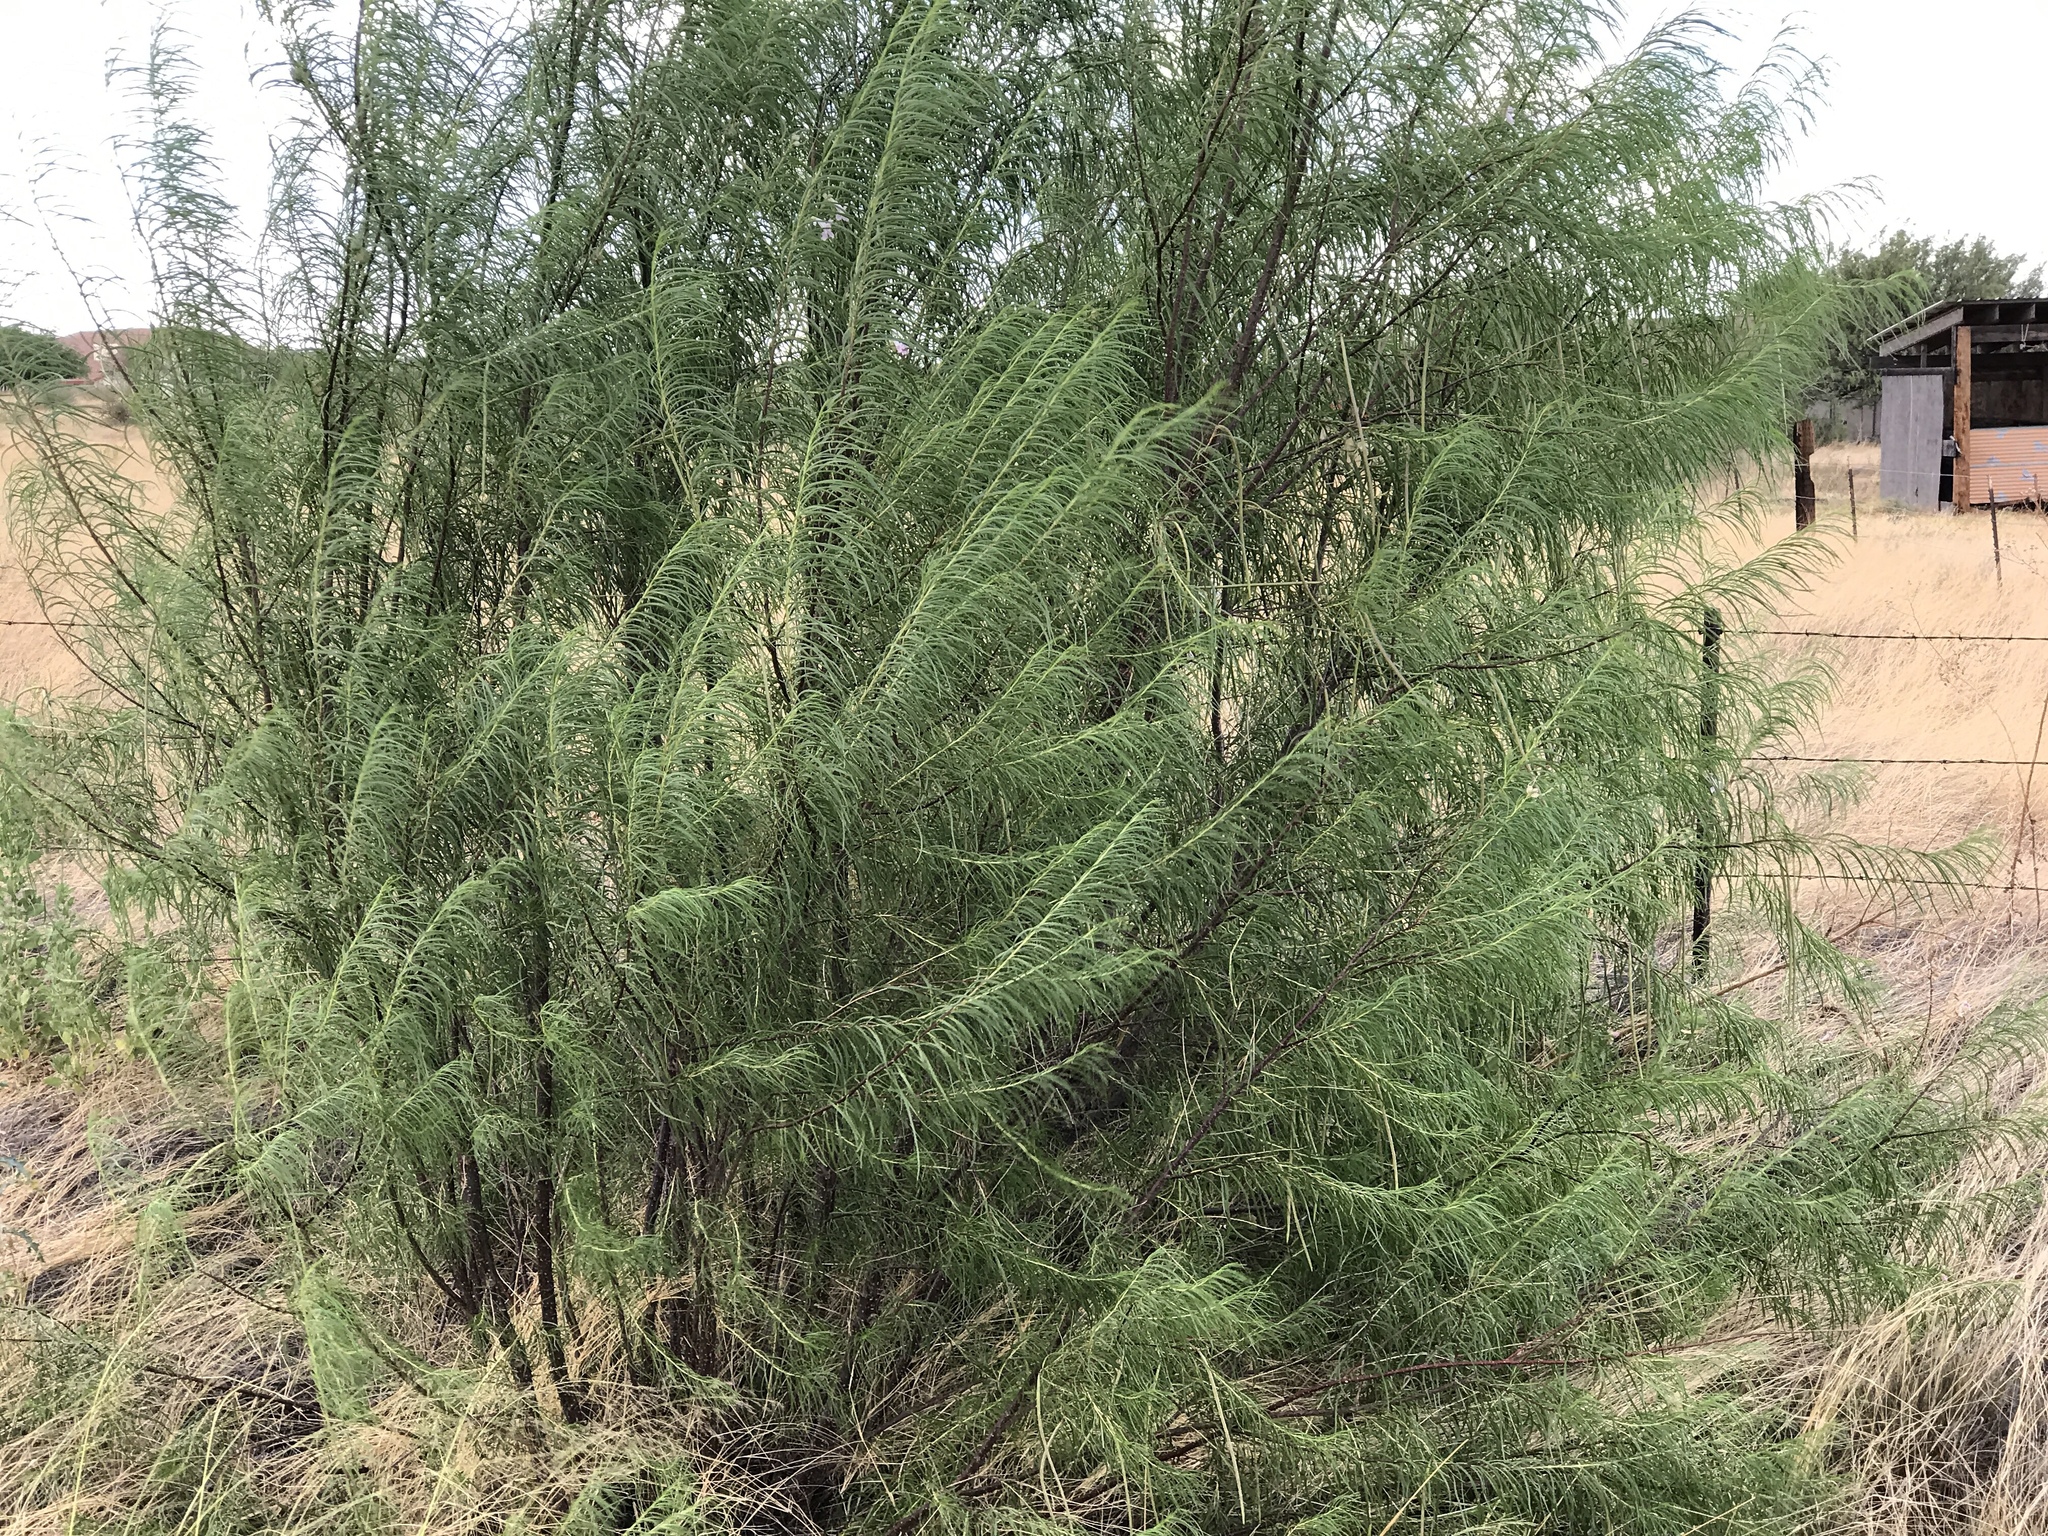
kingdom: Plantae
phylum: Tracheophyta
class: Magnoliopsida
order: Lamiales
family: Bignoniaceae
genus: Chilopsis
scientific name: Chilopsis linearis
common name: Desert-willow
